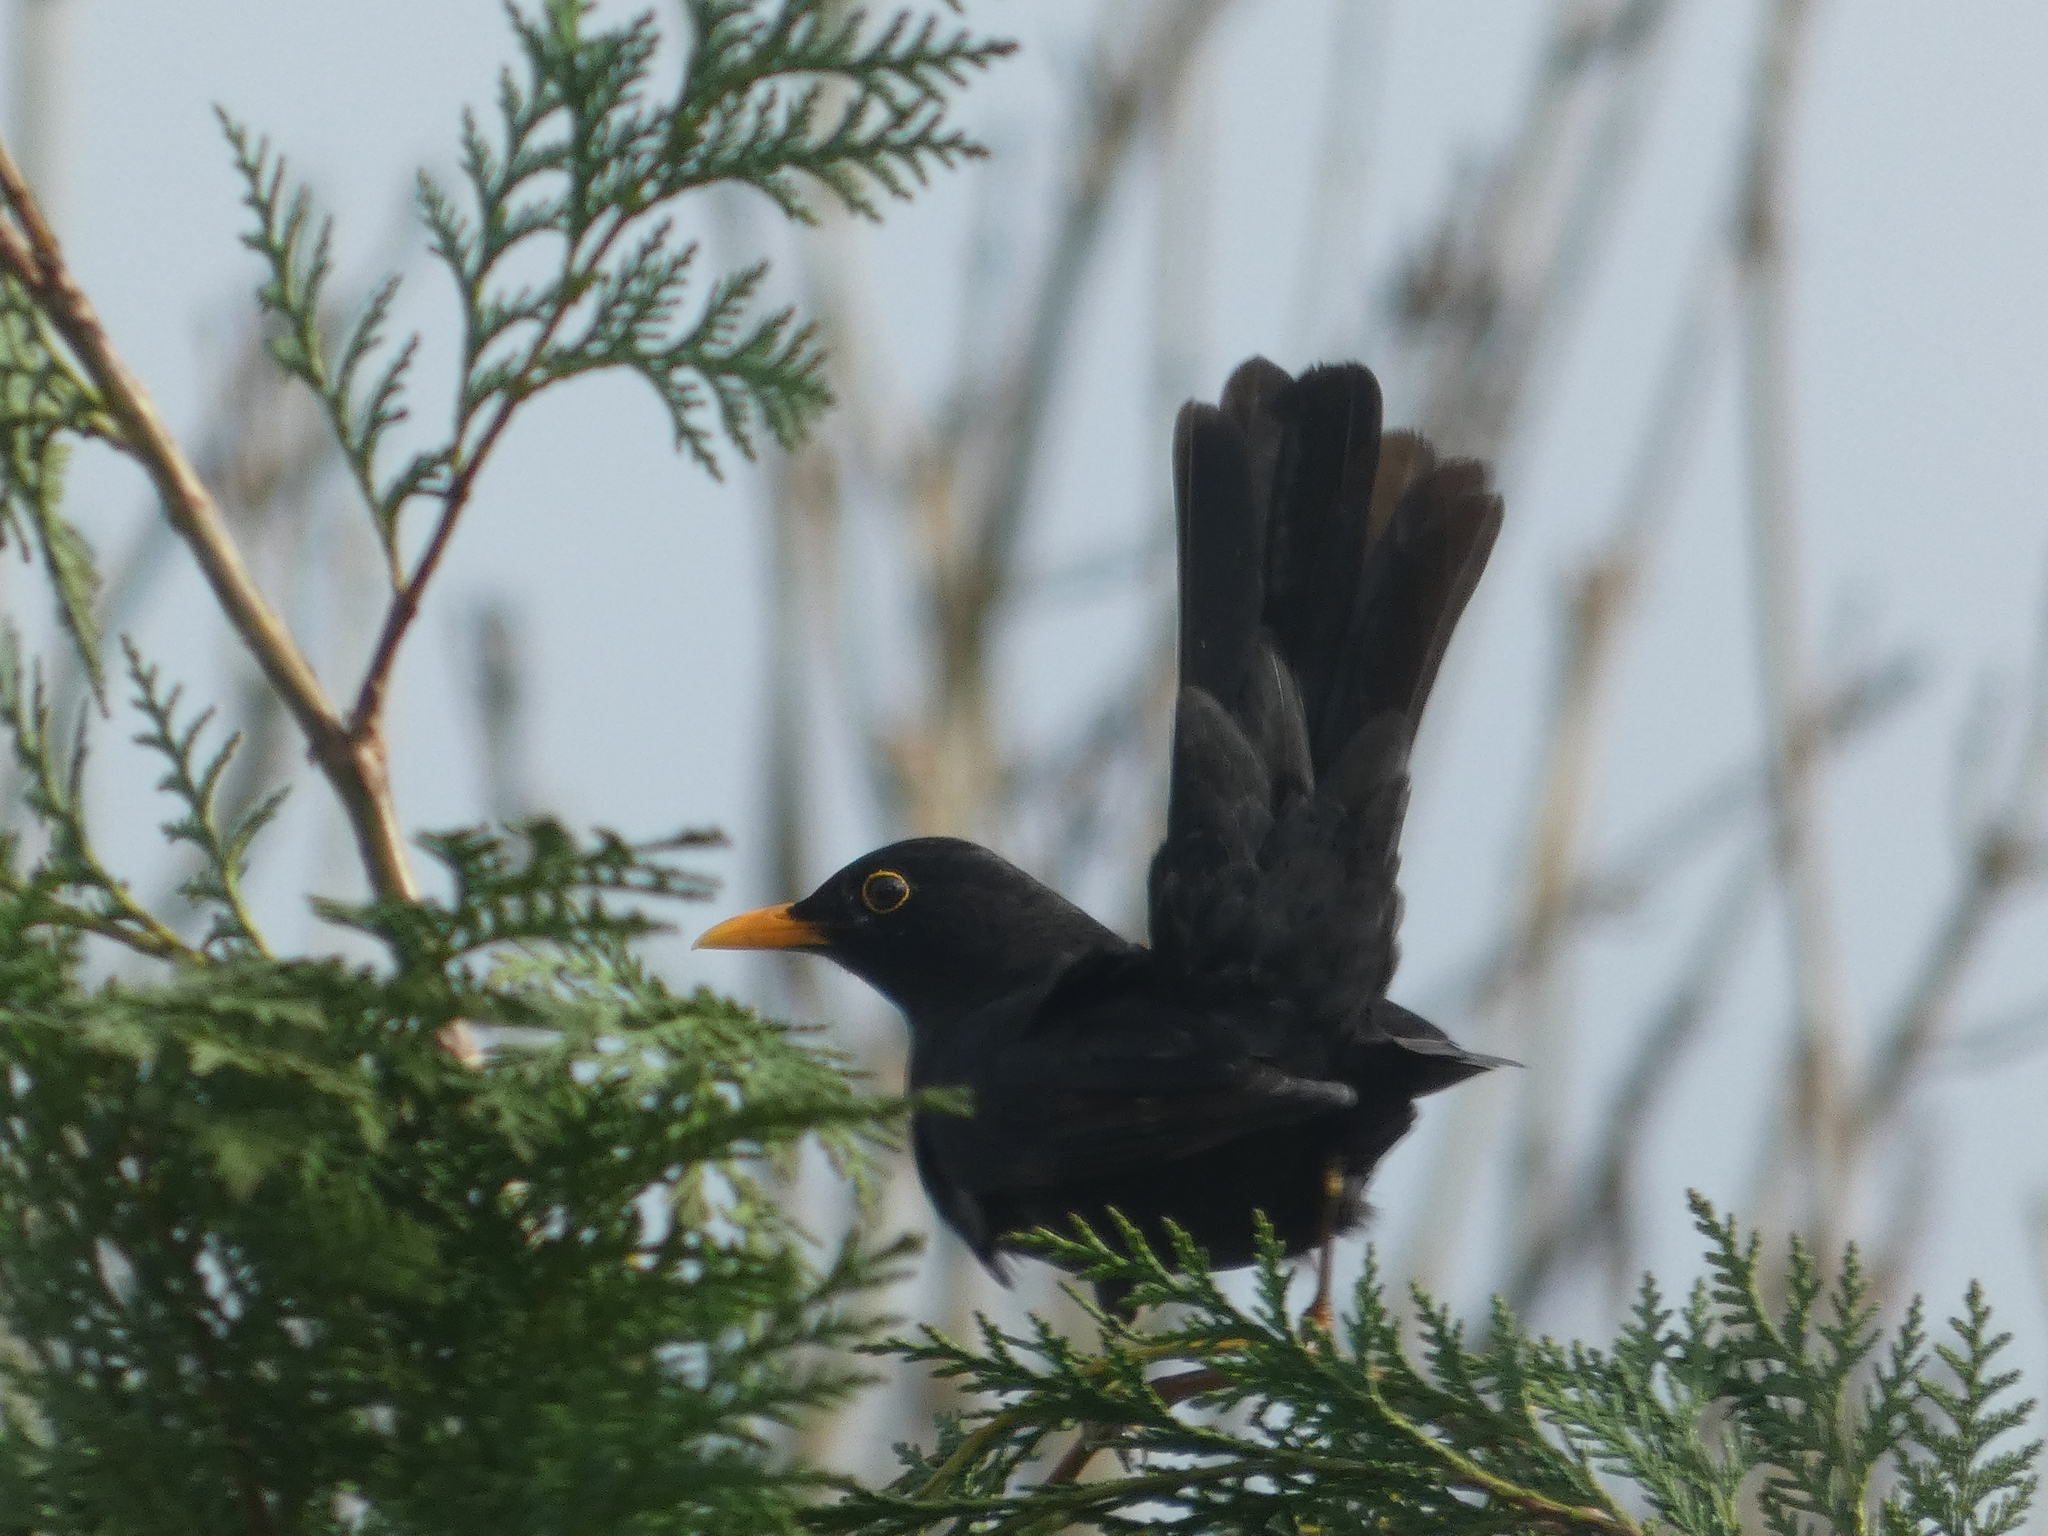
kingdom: Animalia
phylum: Chordata
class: Aves
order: Passeriformes
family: Turdidae
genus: Turdus
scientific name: Turdus merula
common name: Common blackbird
